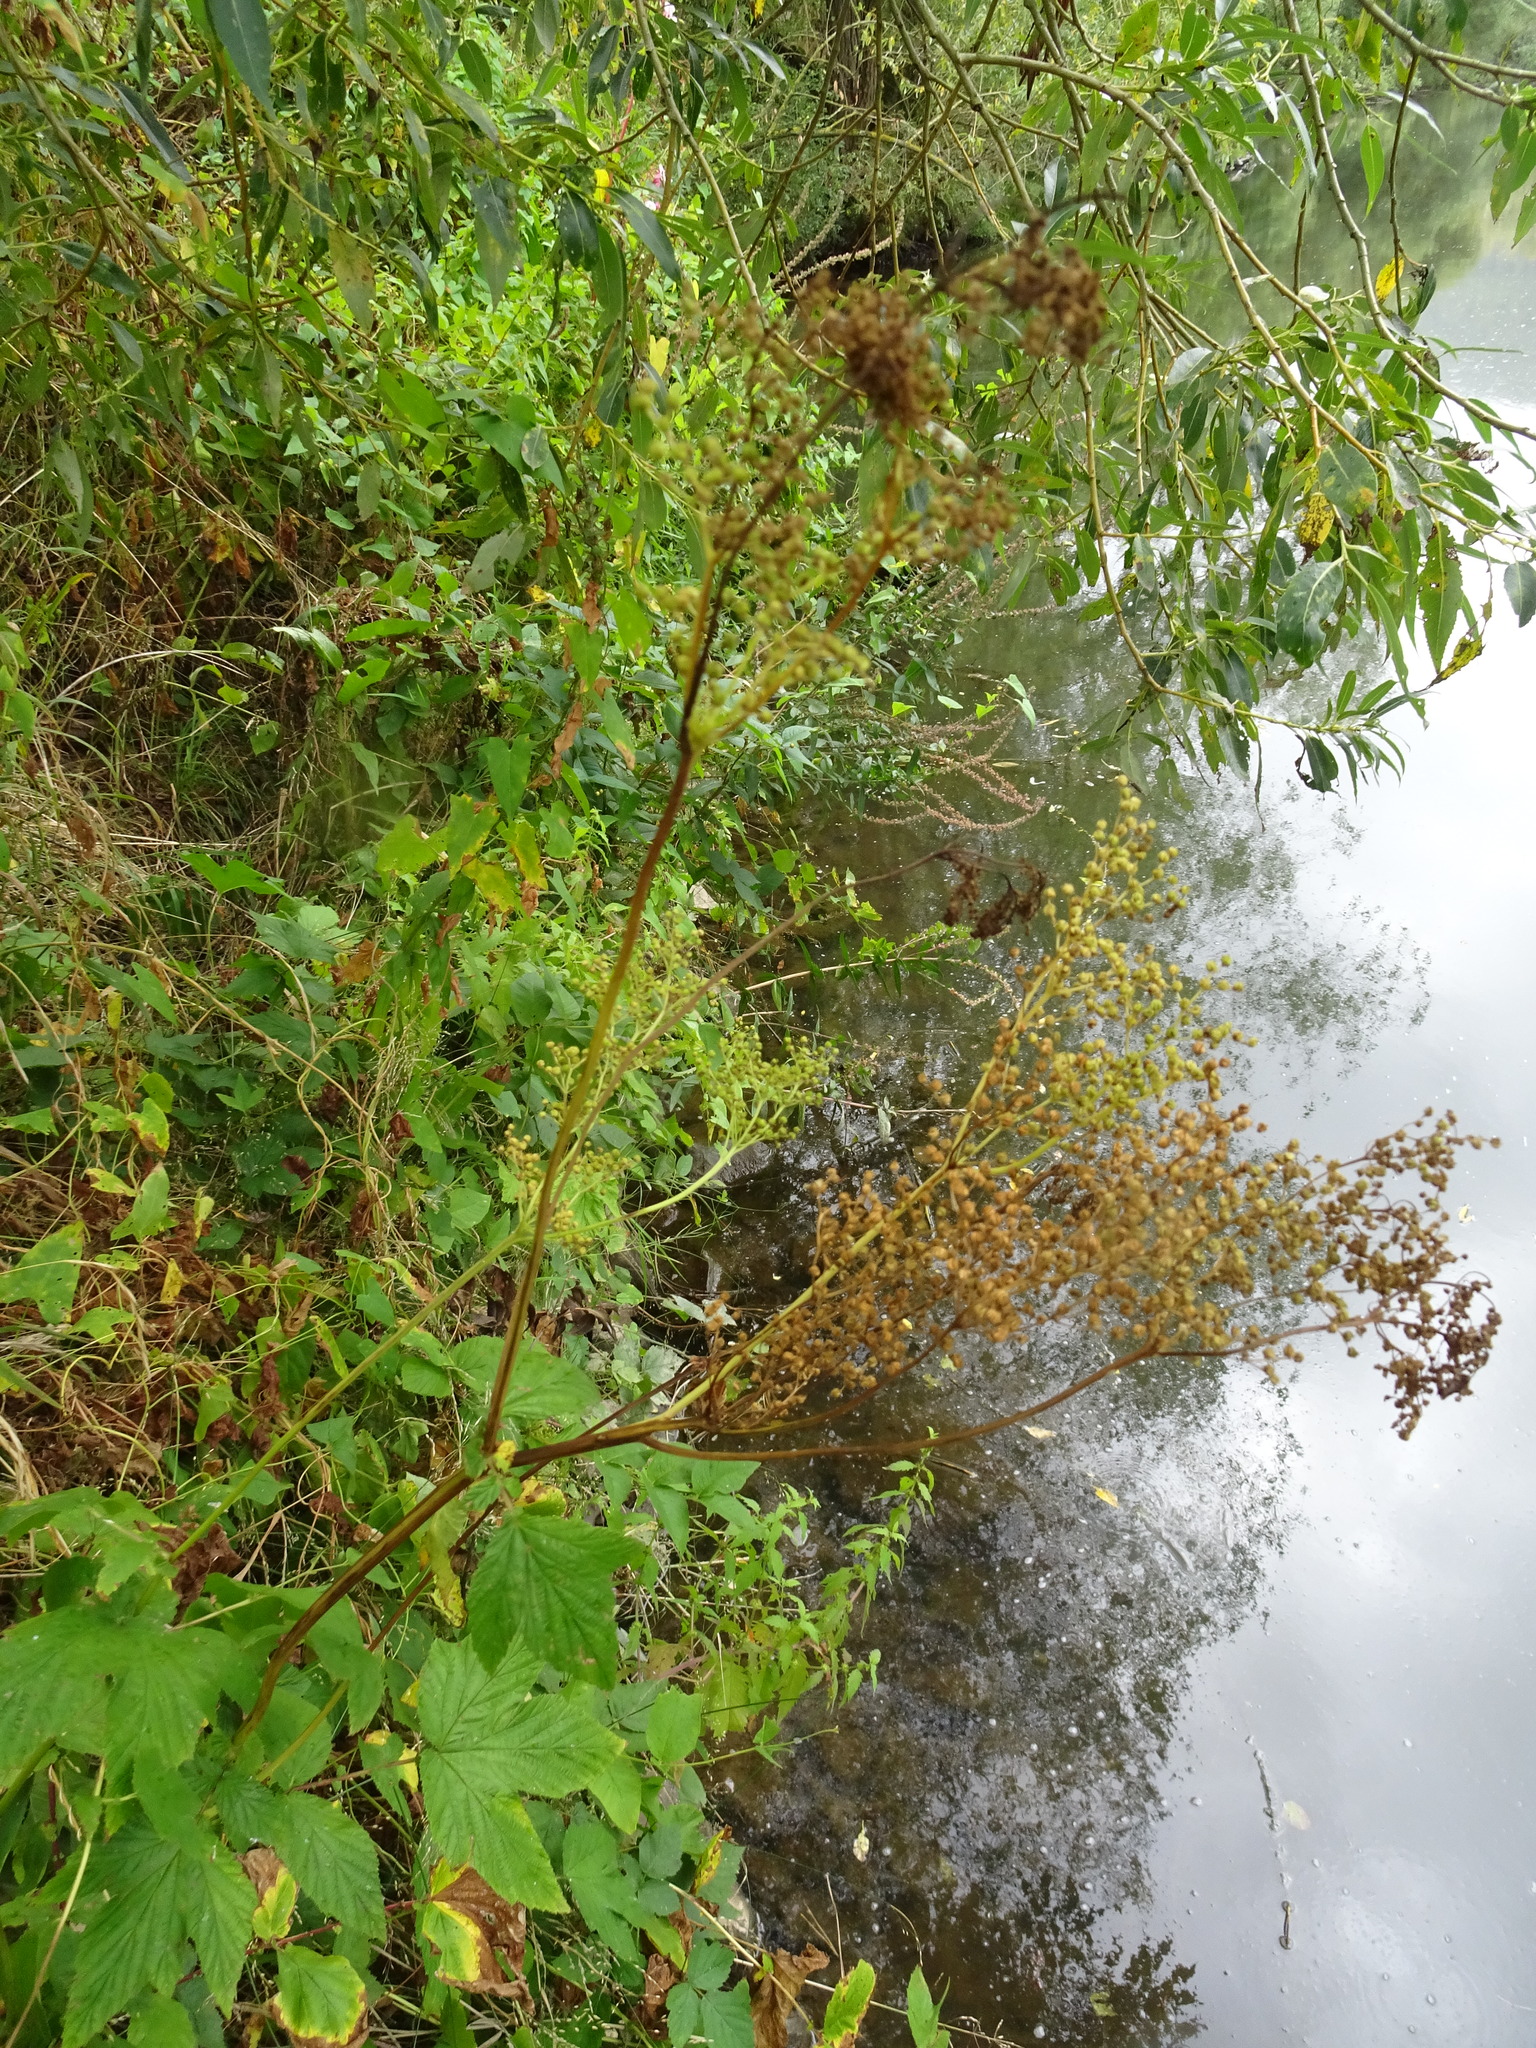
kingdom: Plantae
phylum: Tracheophyta
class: Magnoliopsida
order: Rosales
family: Rosaceae
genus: Filipendula
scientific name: Filipendula ulmaria
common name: Meadowsweet
